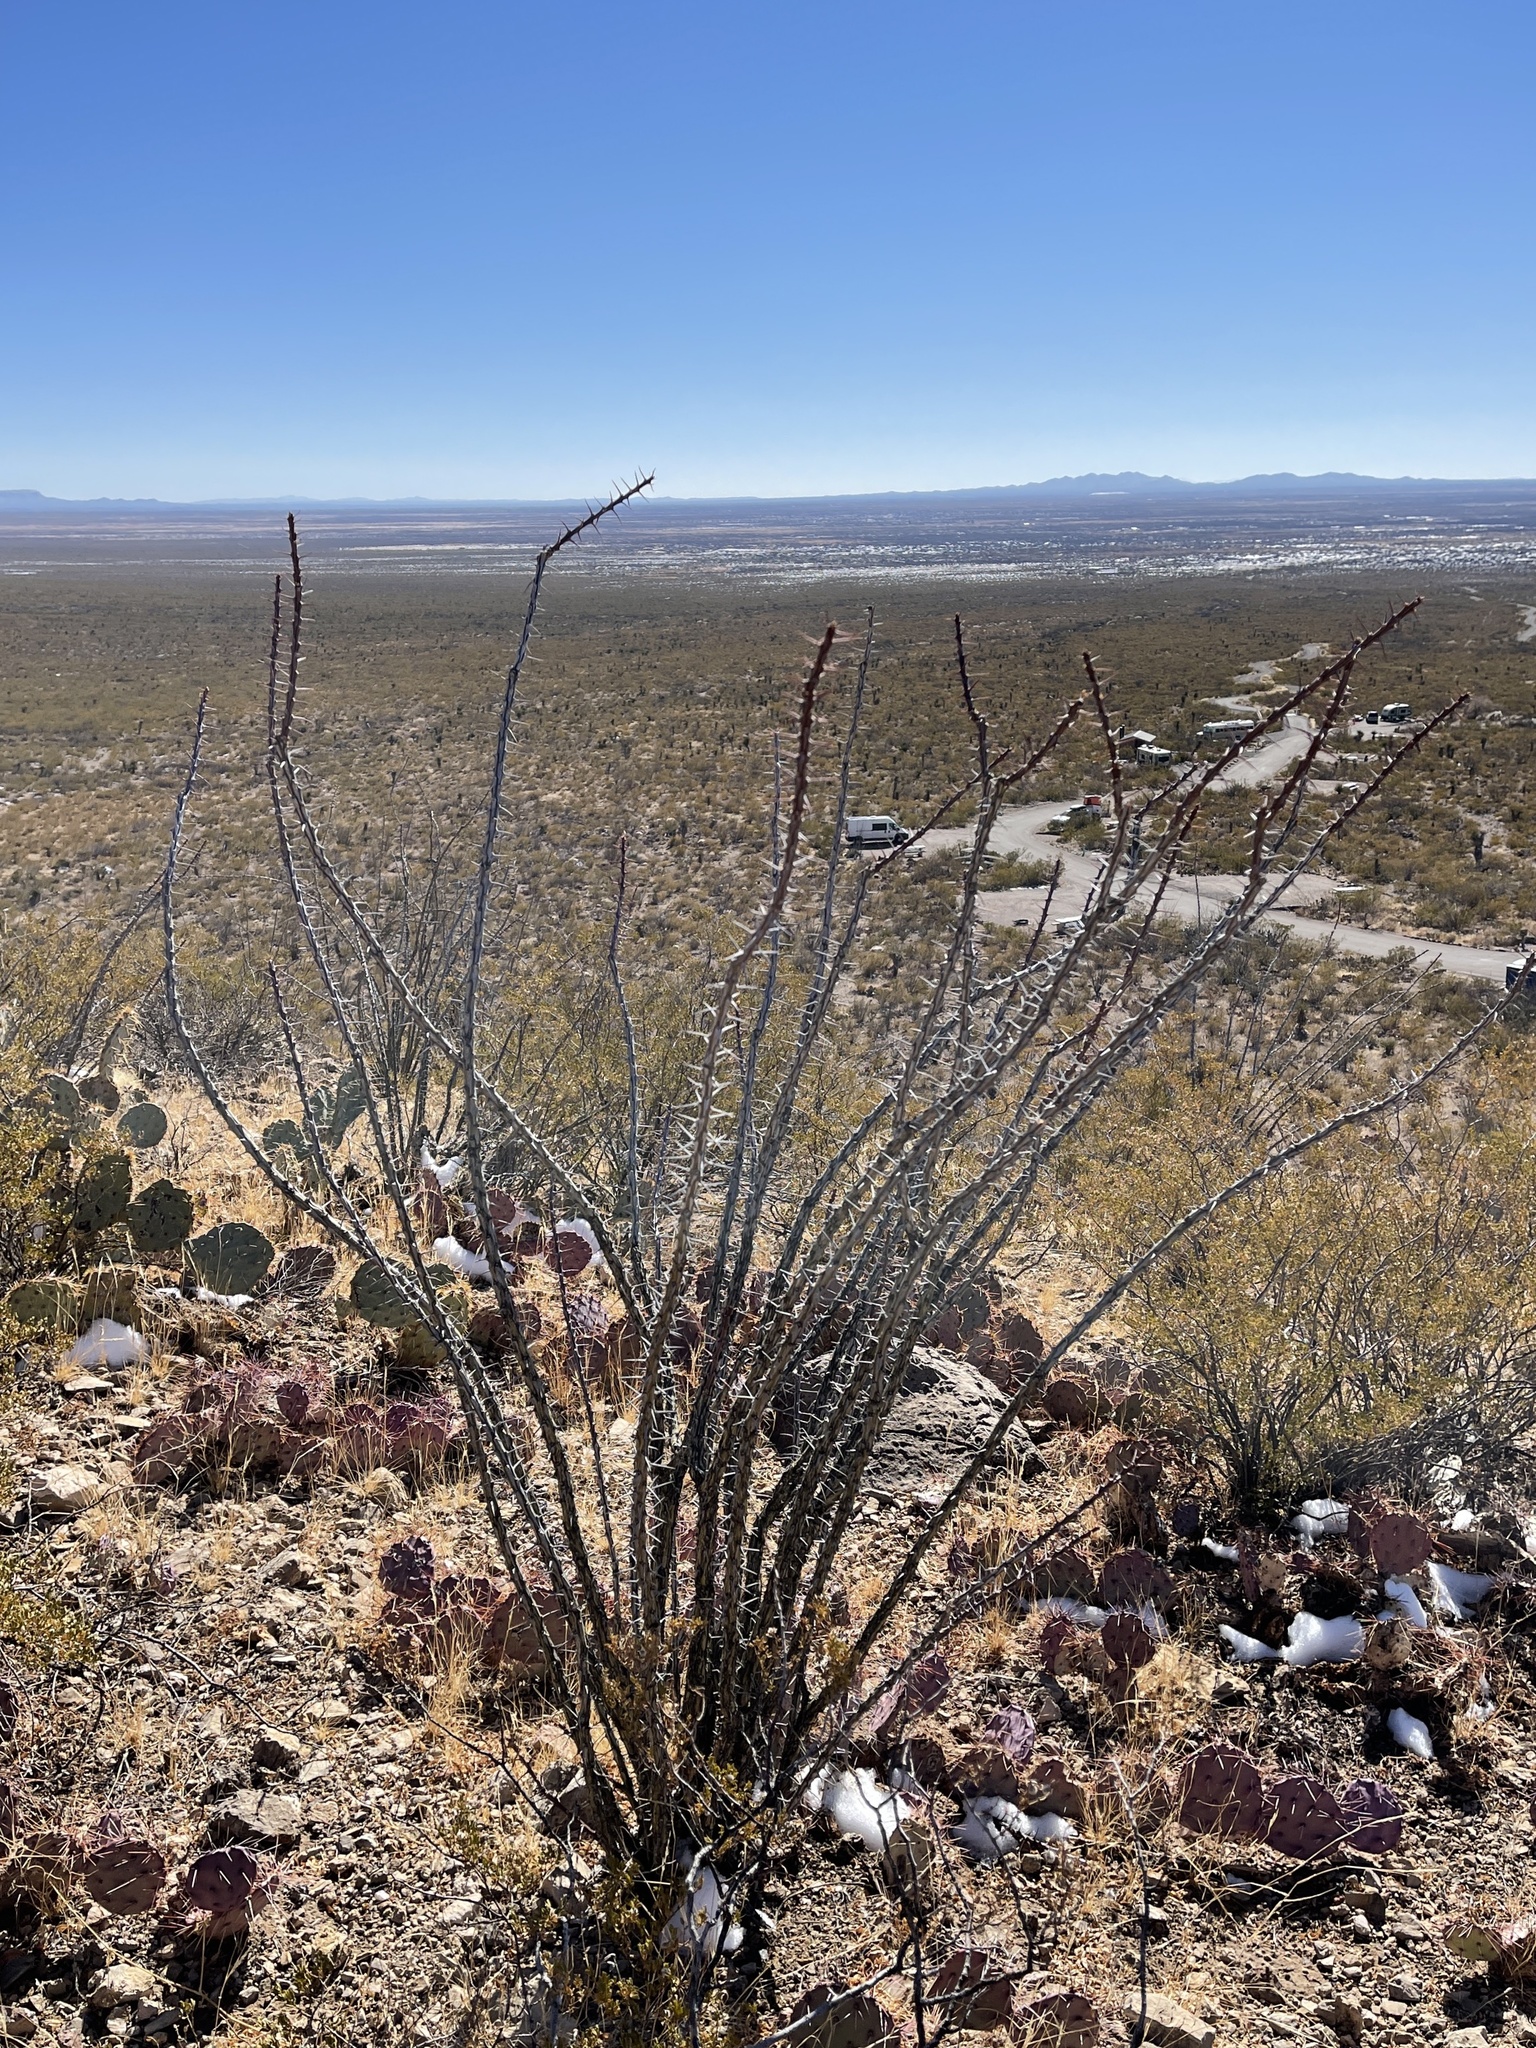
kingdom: Plantae
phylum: Tracheophyta
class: Magnoliopsida
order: Ericales
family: Fouquieriaceae
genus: Fouquieria
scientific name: Fouquieria splendens
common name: Vine-cactus
